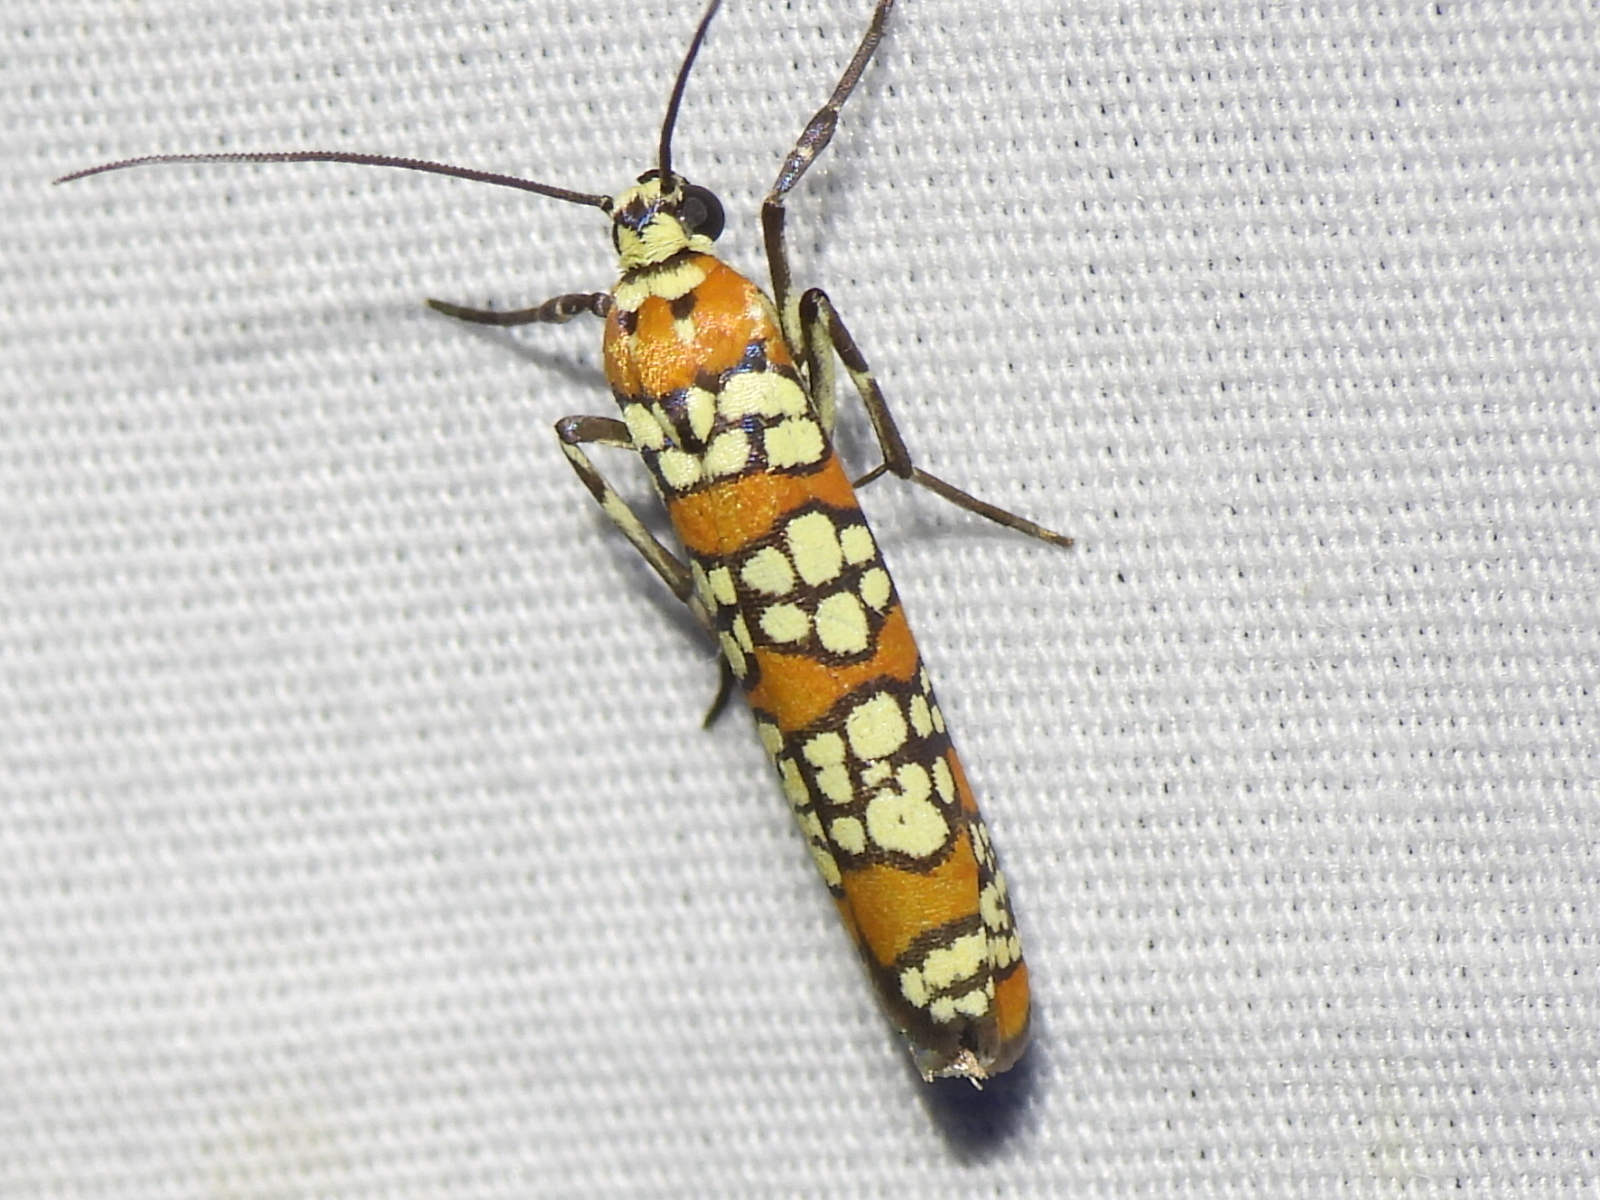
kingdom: Animalia
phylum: Arthropoda
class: Insecta
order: Lepidoptera
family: Attevidae
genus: Atteva
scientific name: Atteva punctella
